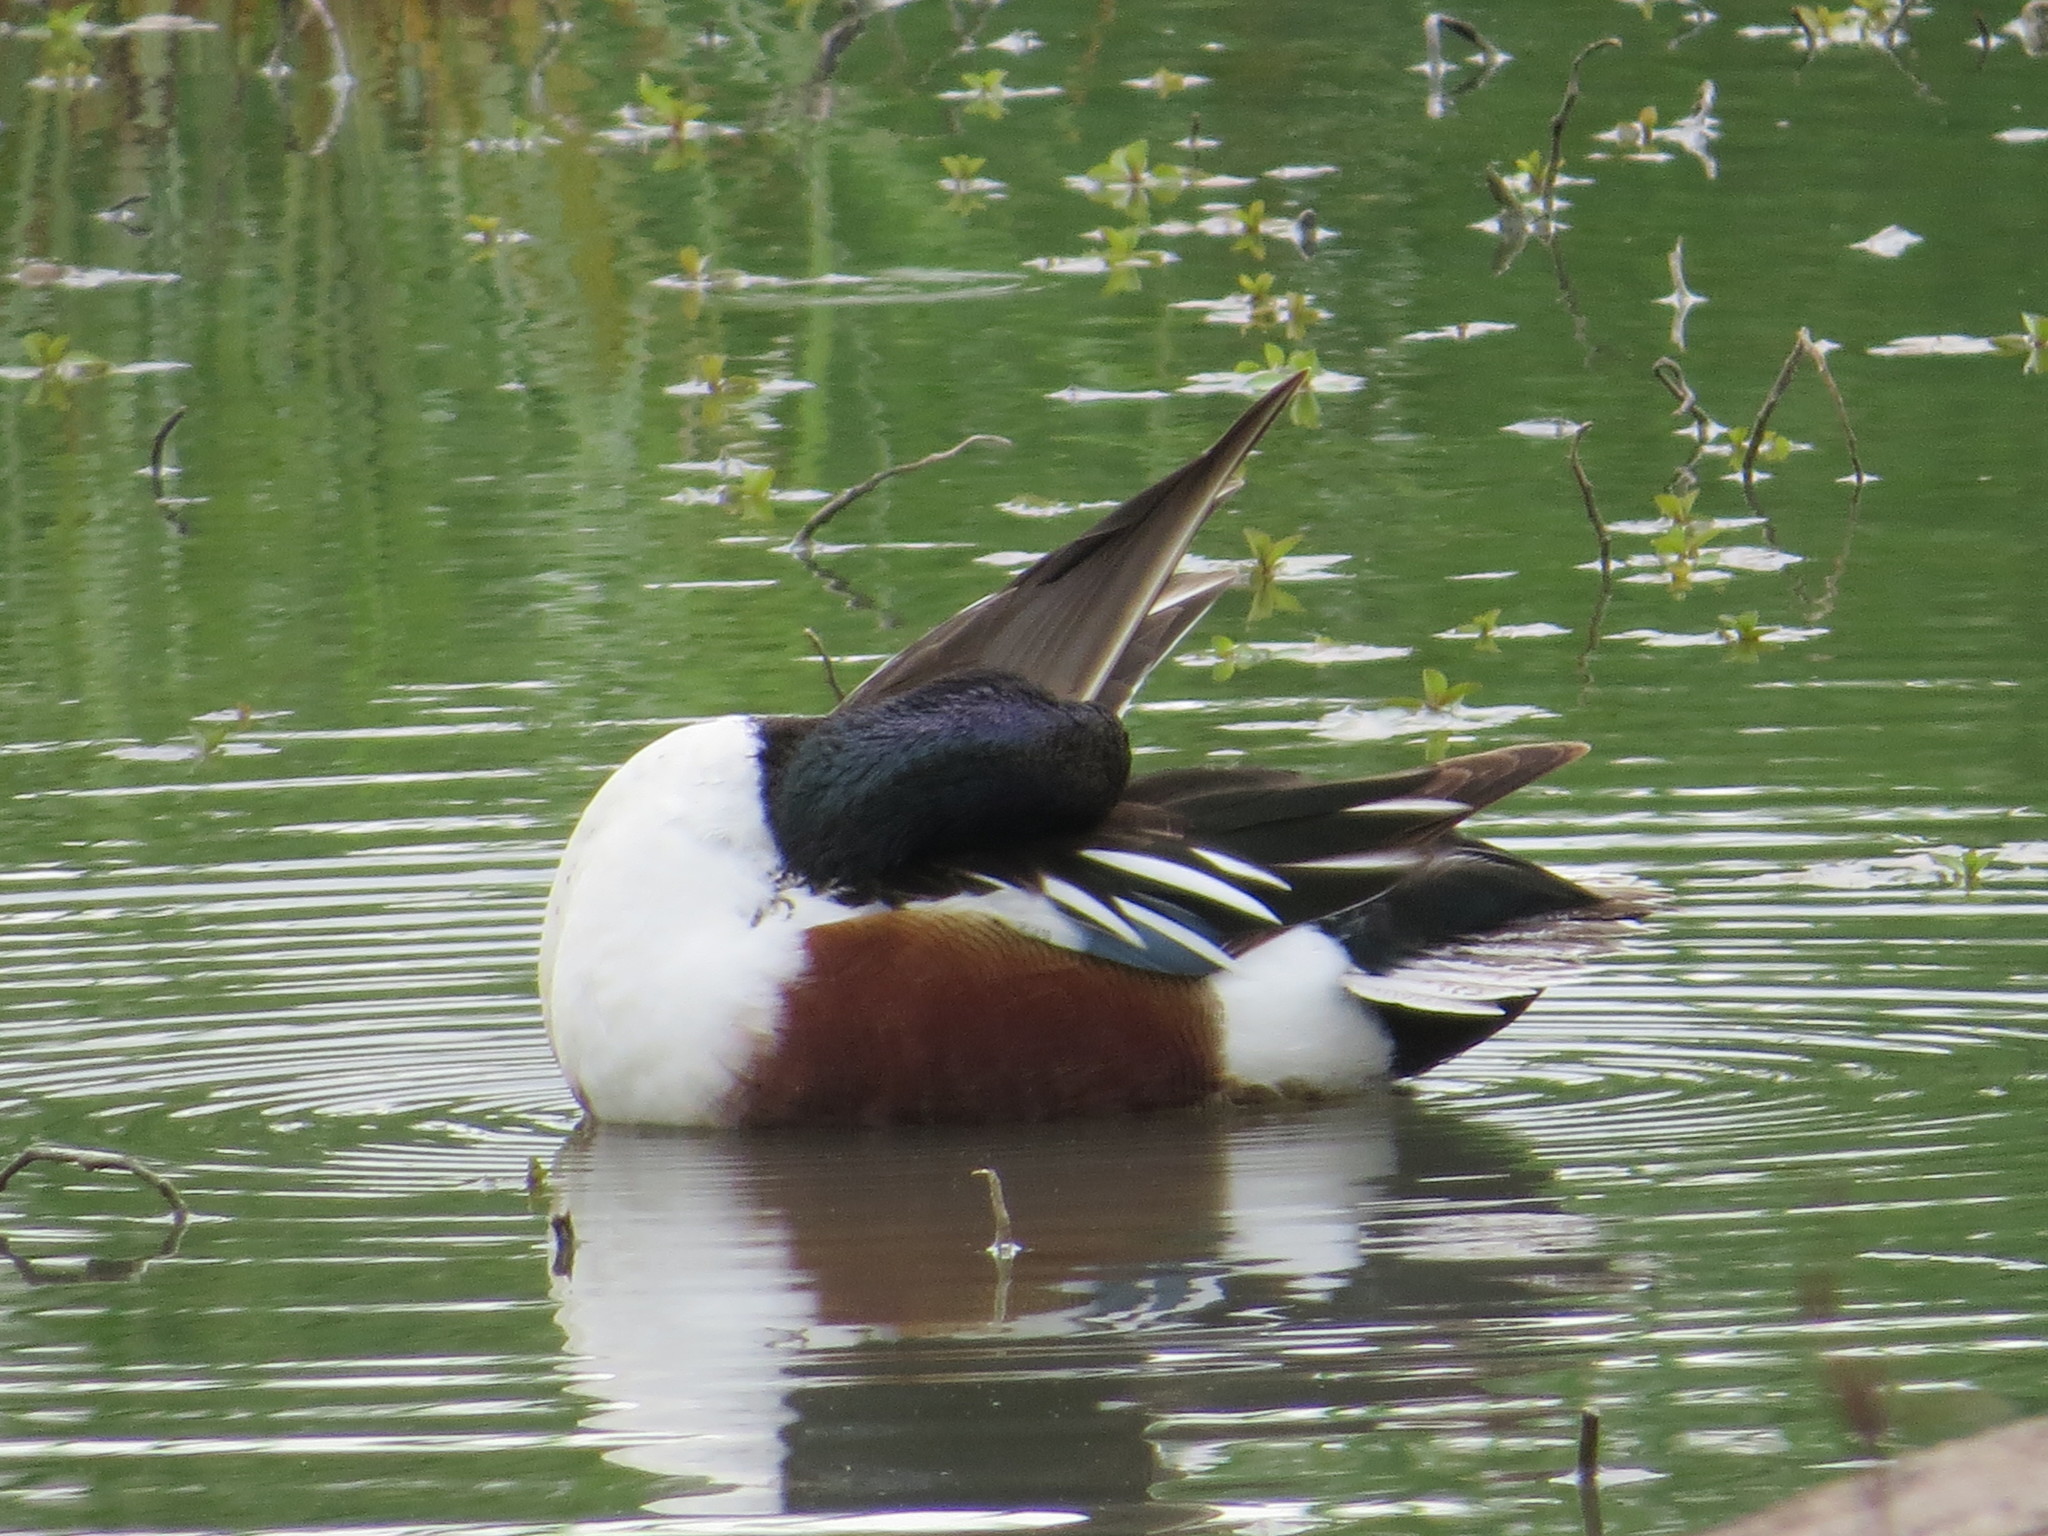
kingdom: Animalia
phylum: Chordata
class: Aves
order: Anseriformes
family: Anatidae
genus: Spatula
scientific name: Spatula clypeata
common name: Northern shoveler
